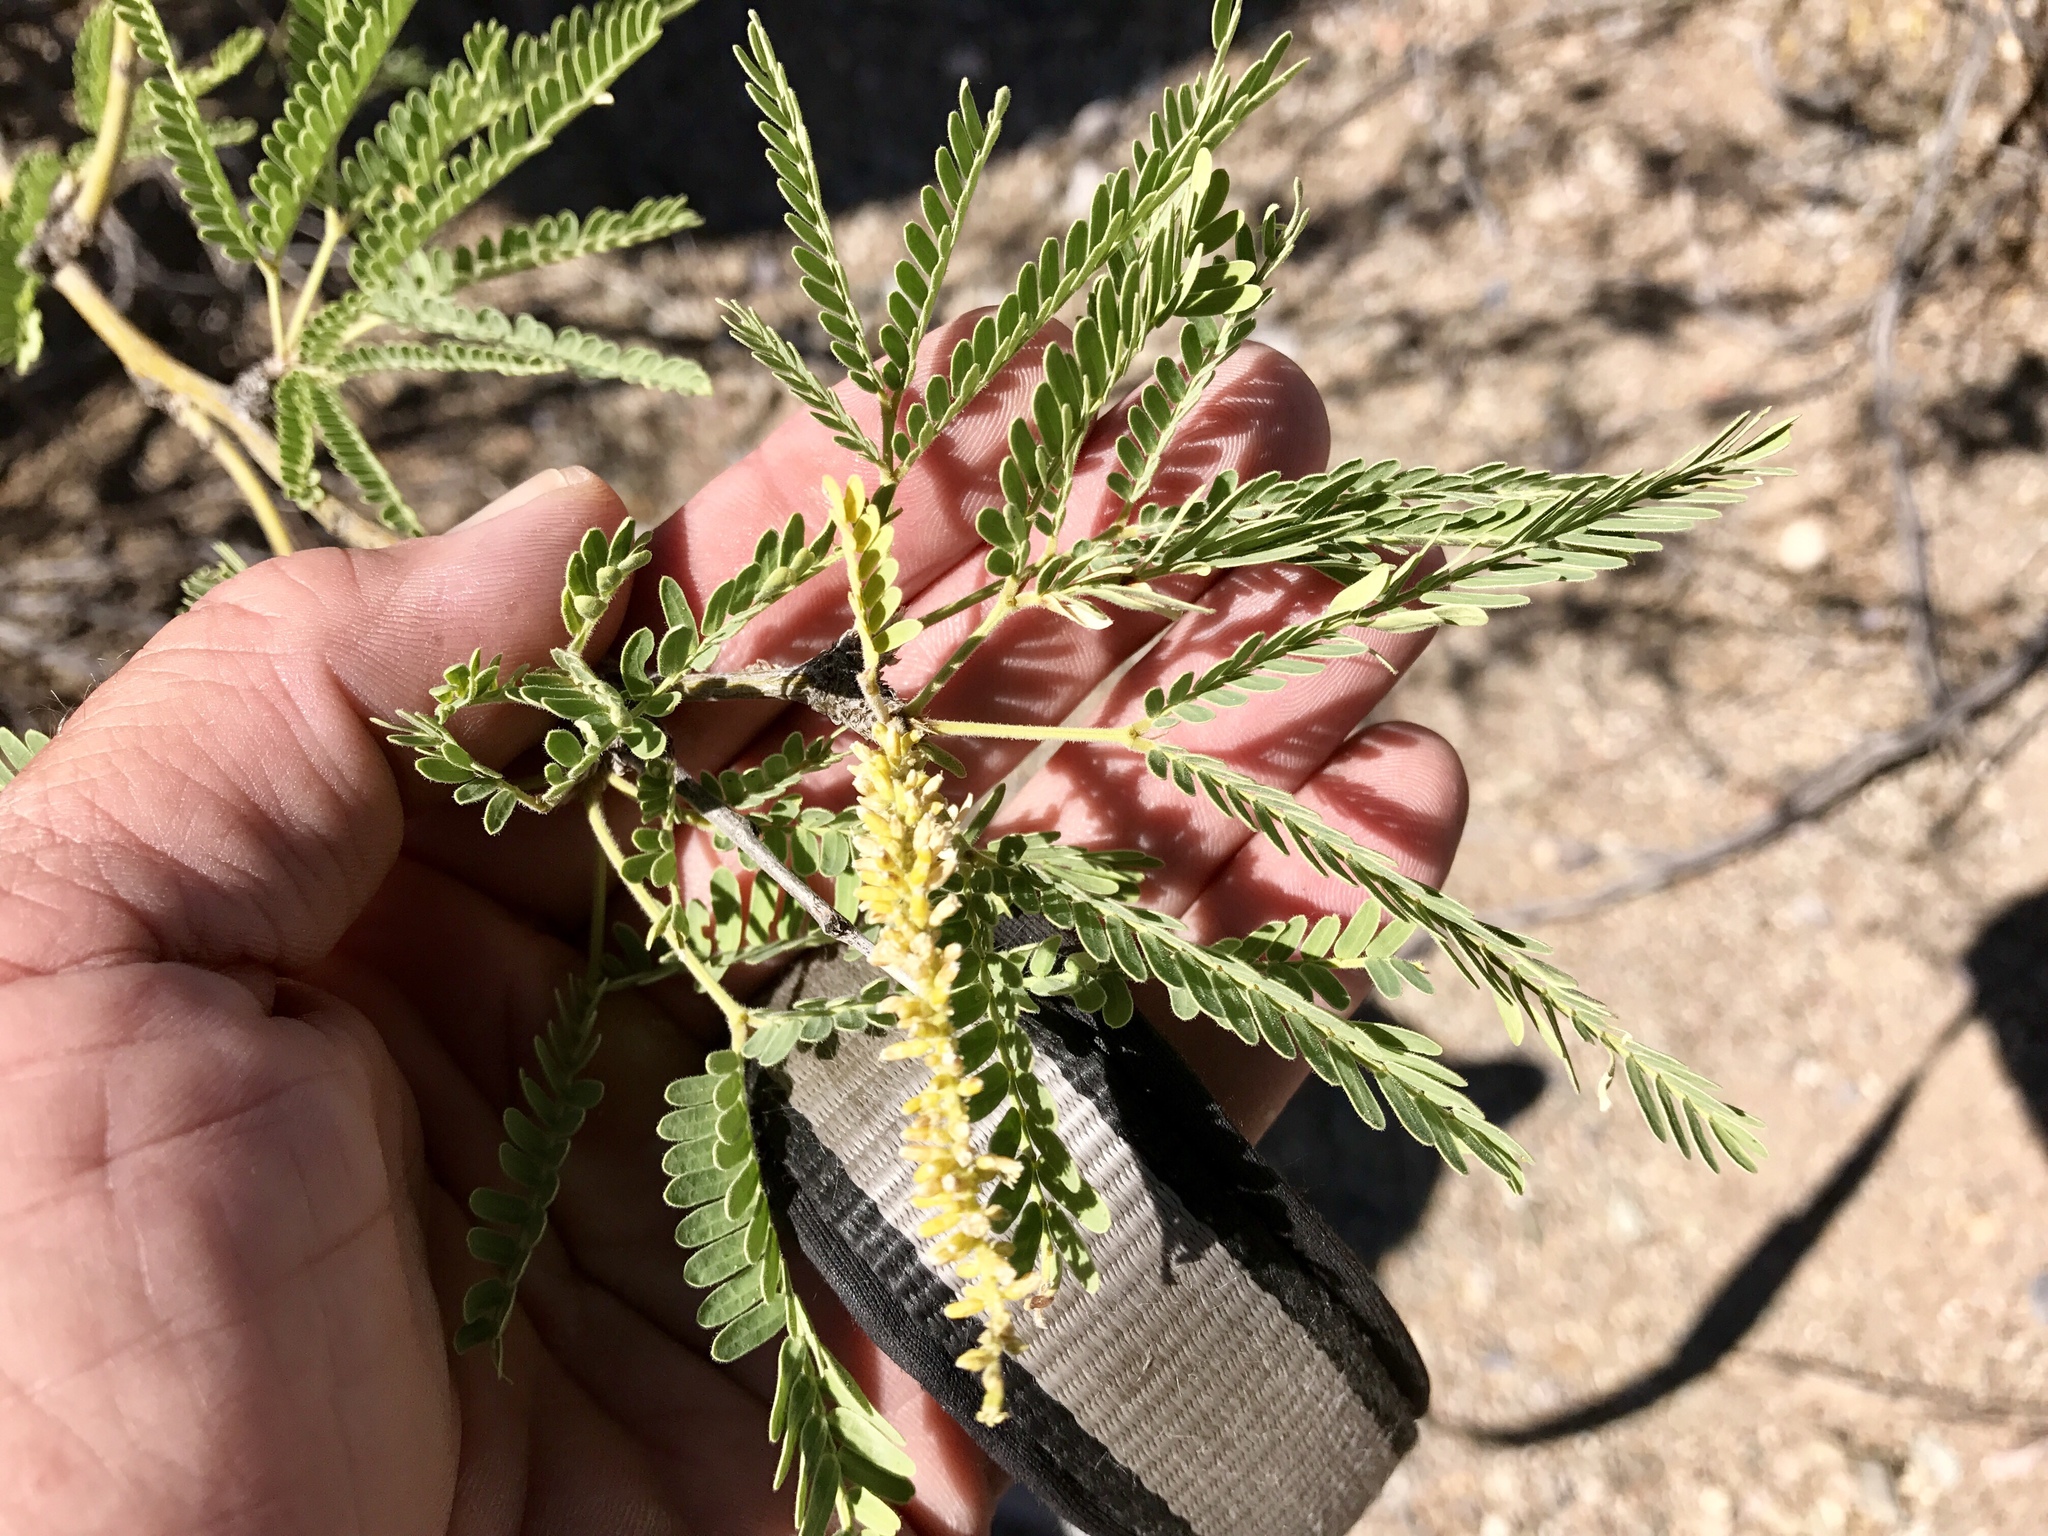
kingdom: Plantae
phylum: Tracheophyta
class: Magnoliopsida
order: Fabales
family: Fabaceae
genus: Prosopis
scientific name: Prosopis velutina
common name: Velvet mesquite
